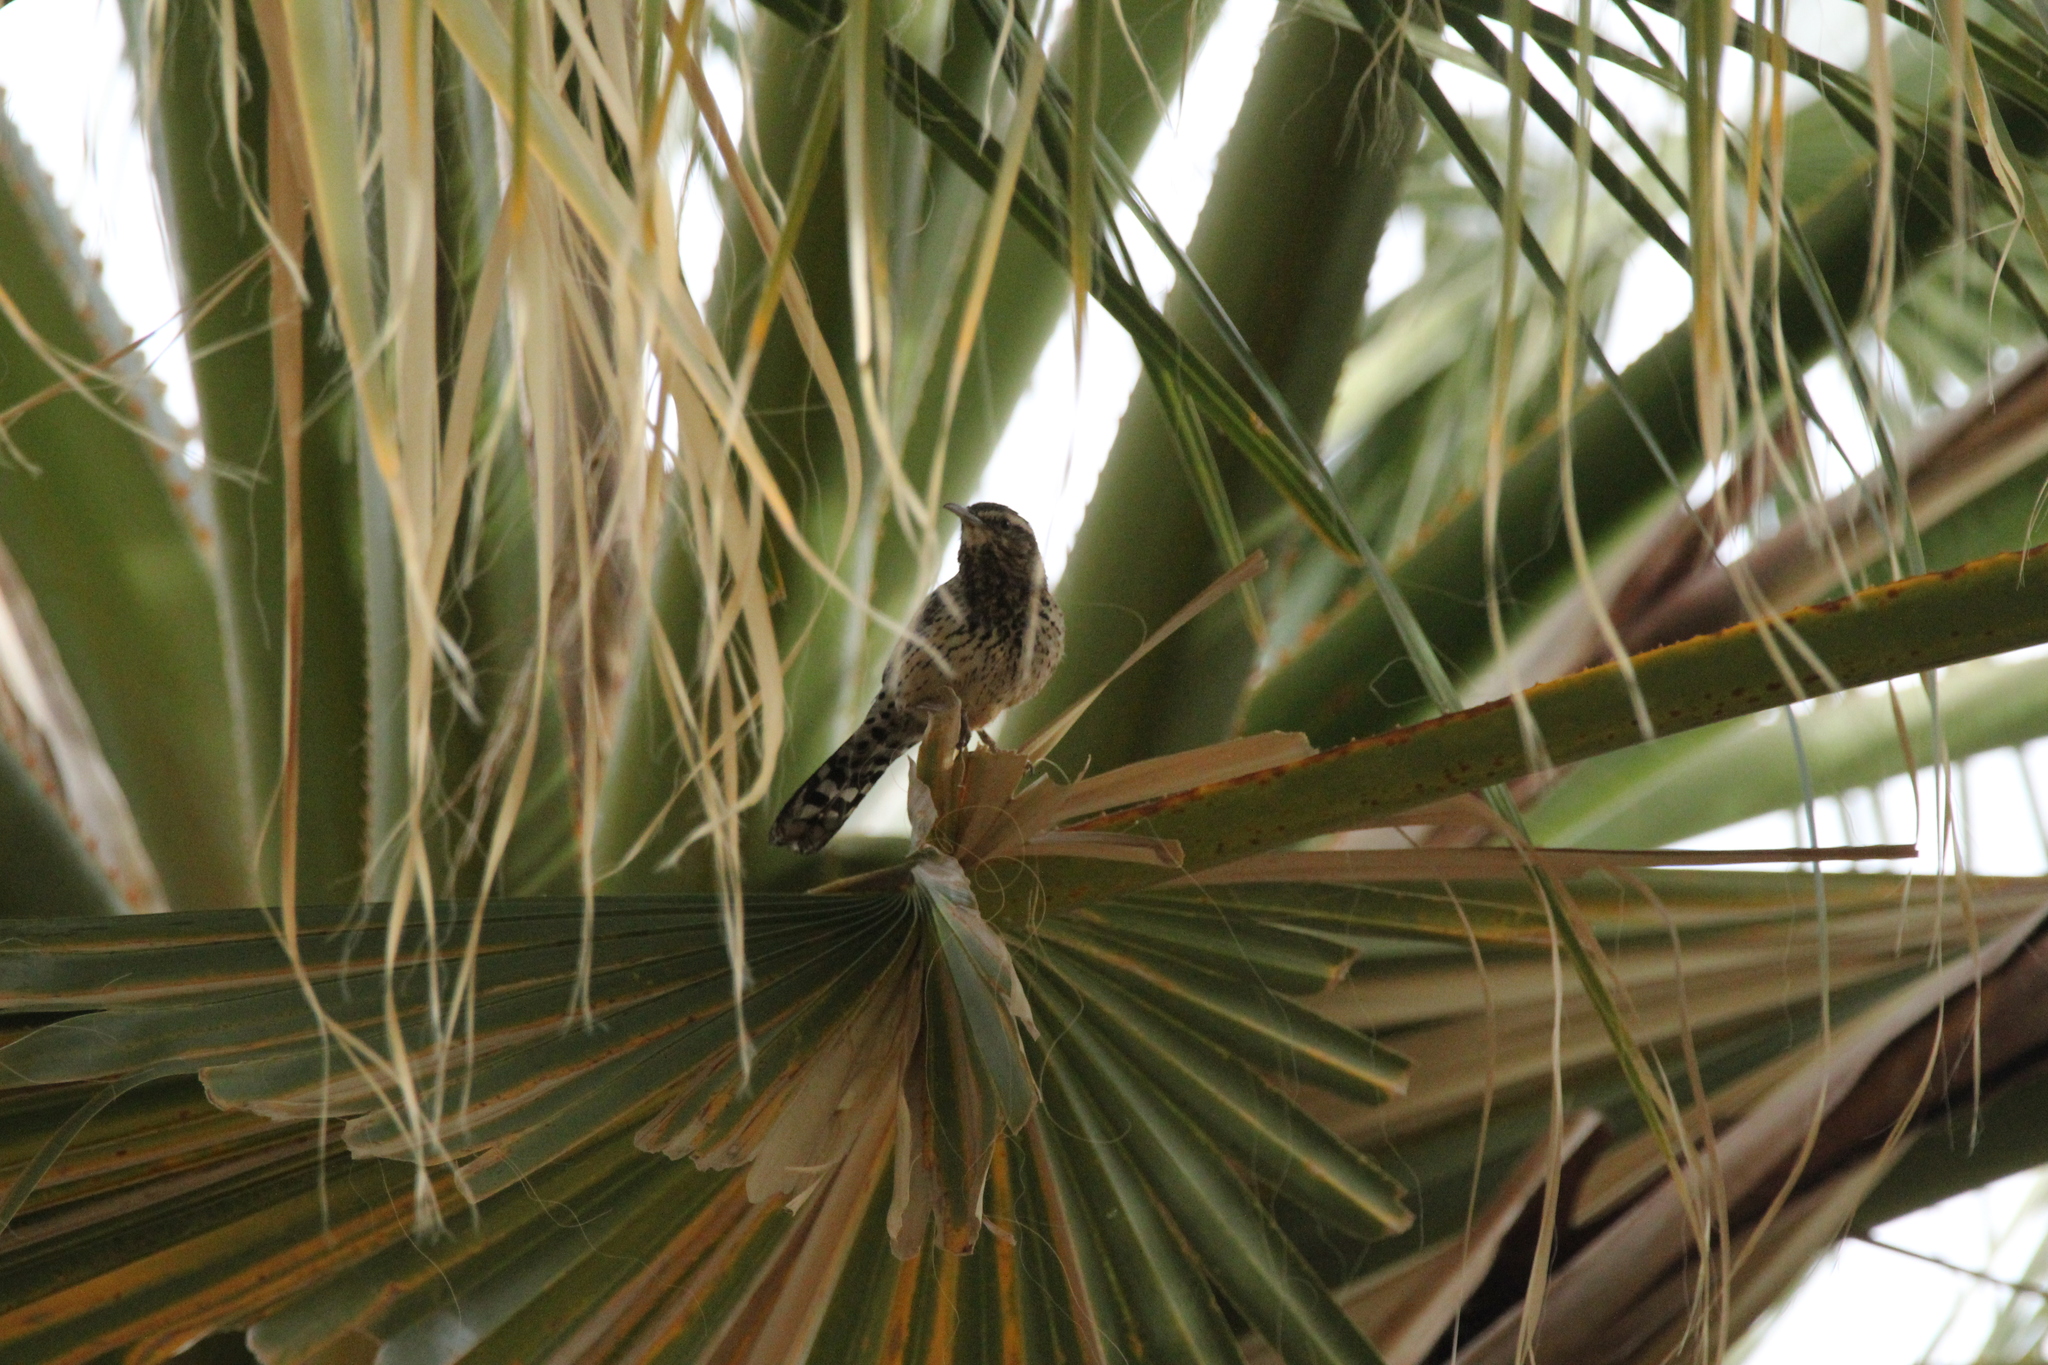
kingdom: Animalia
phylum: Chordata
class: Aves
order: Passeriformes
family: Troglodytidae
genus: Campylorhynchus
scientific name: Campylorhynchus brunneicapillus
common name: Cactus wren
